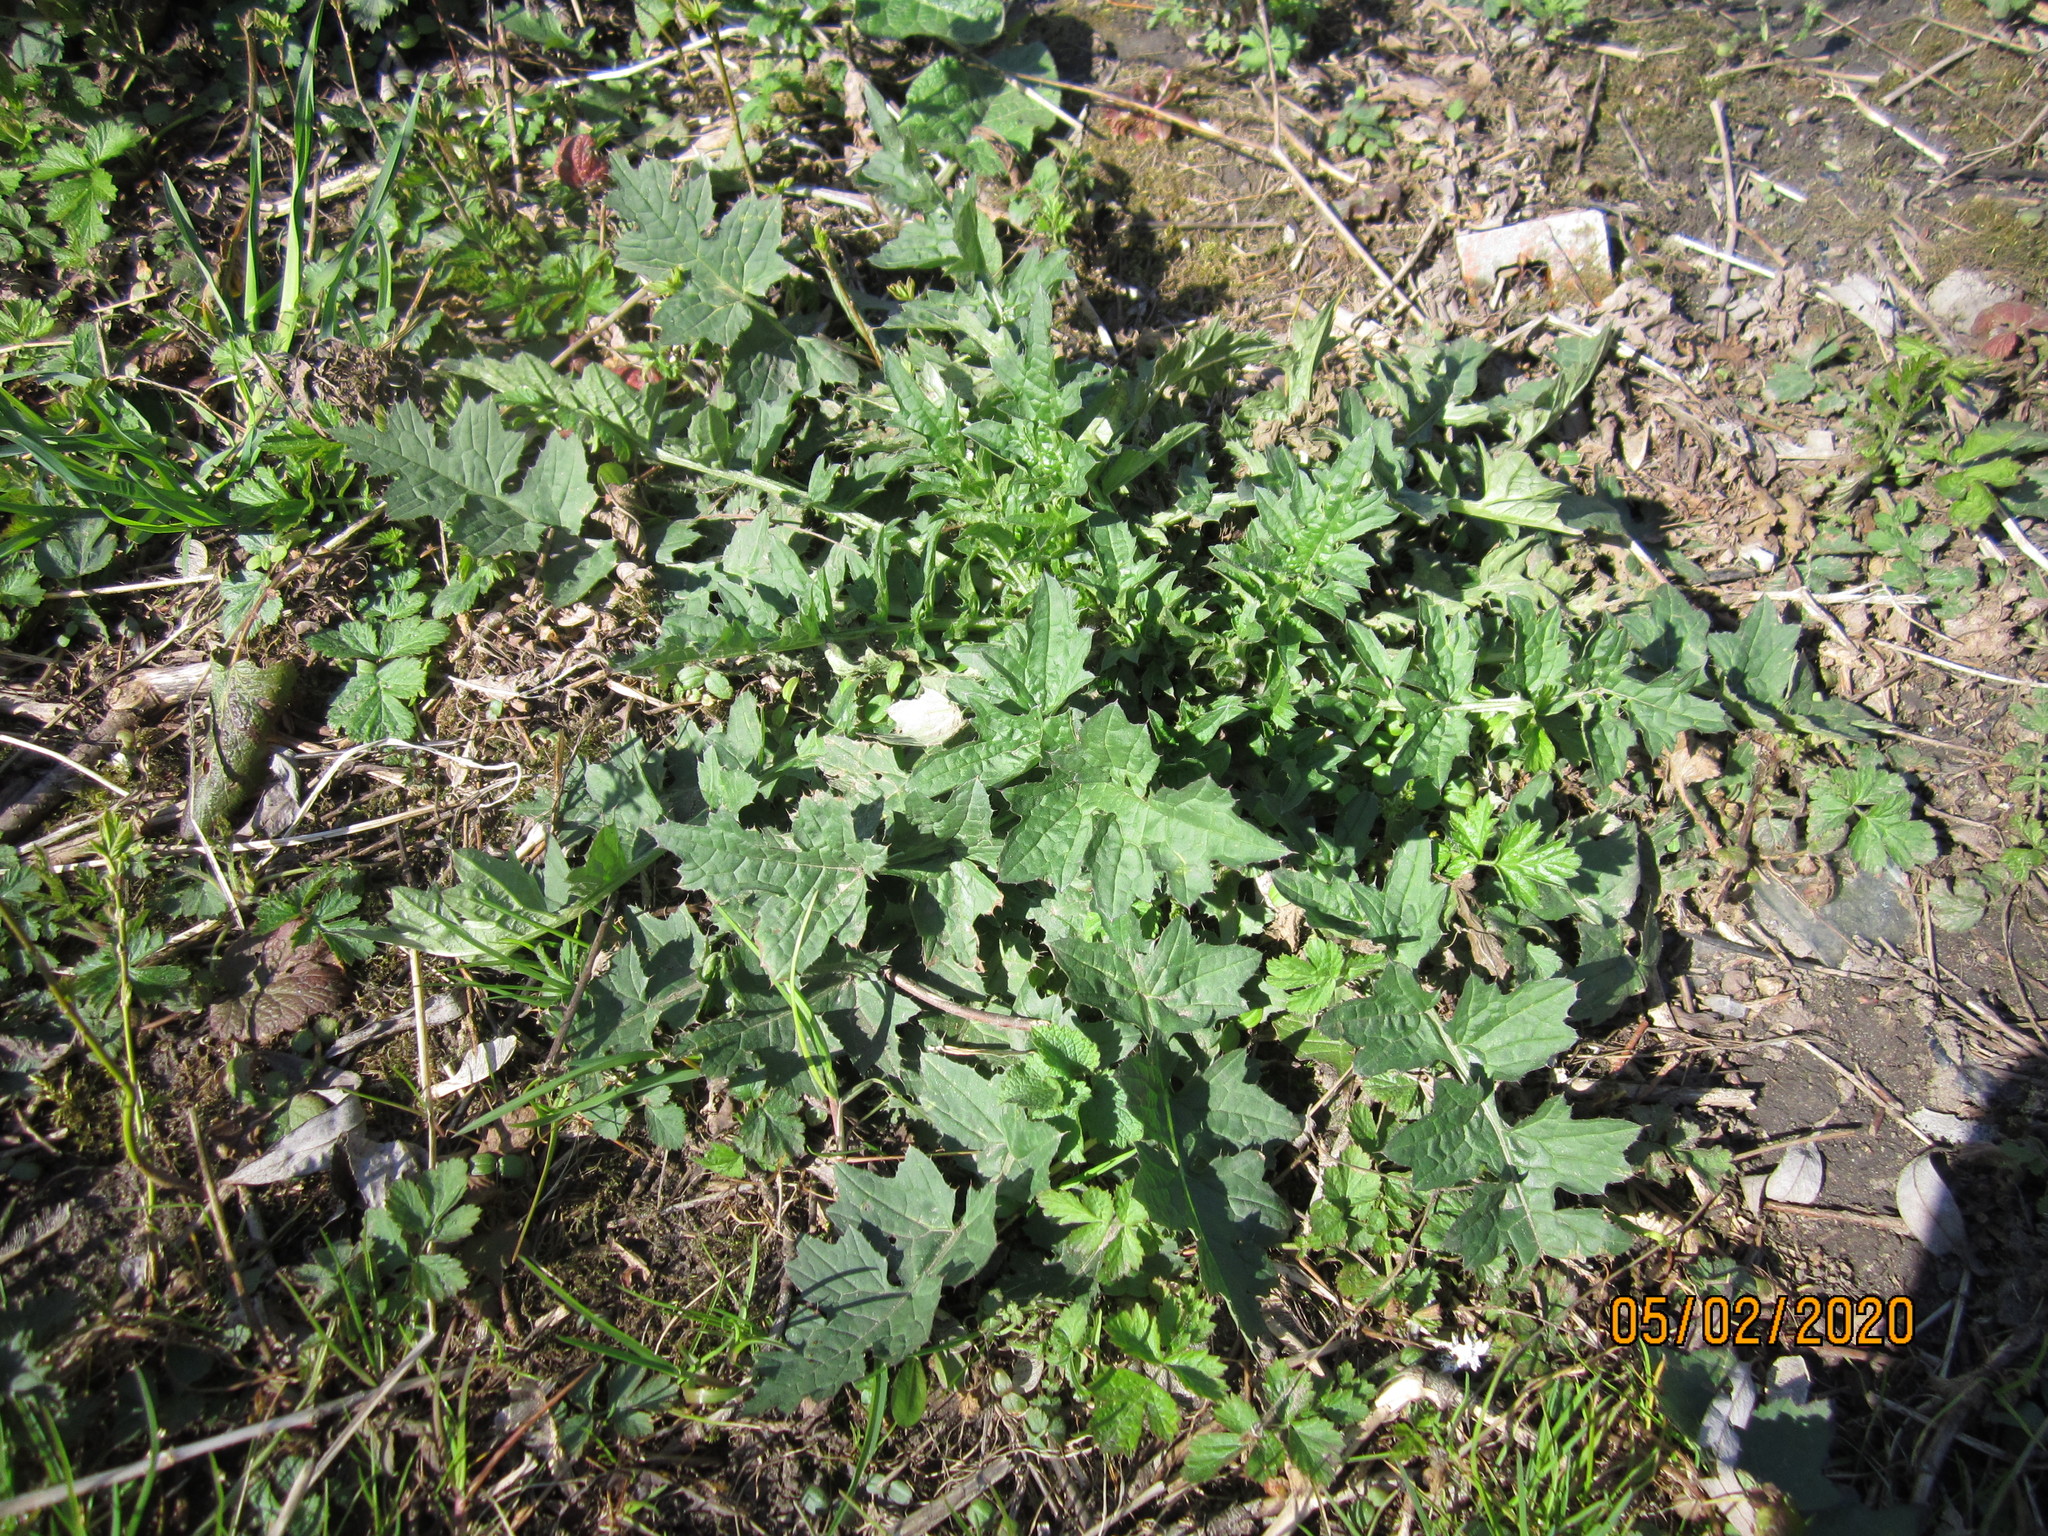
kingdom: Plantae
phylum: Tracheophyta
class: Magnoliopsida
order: Asterales
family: Asteraceae
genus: Carduus
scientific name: Carduus crispus
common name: Welted thistle
